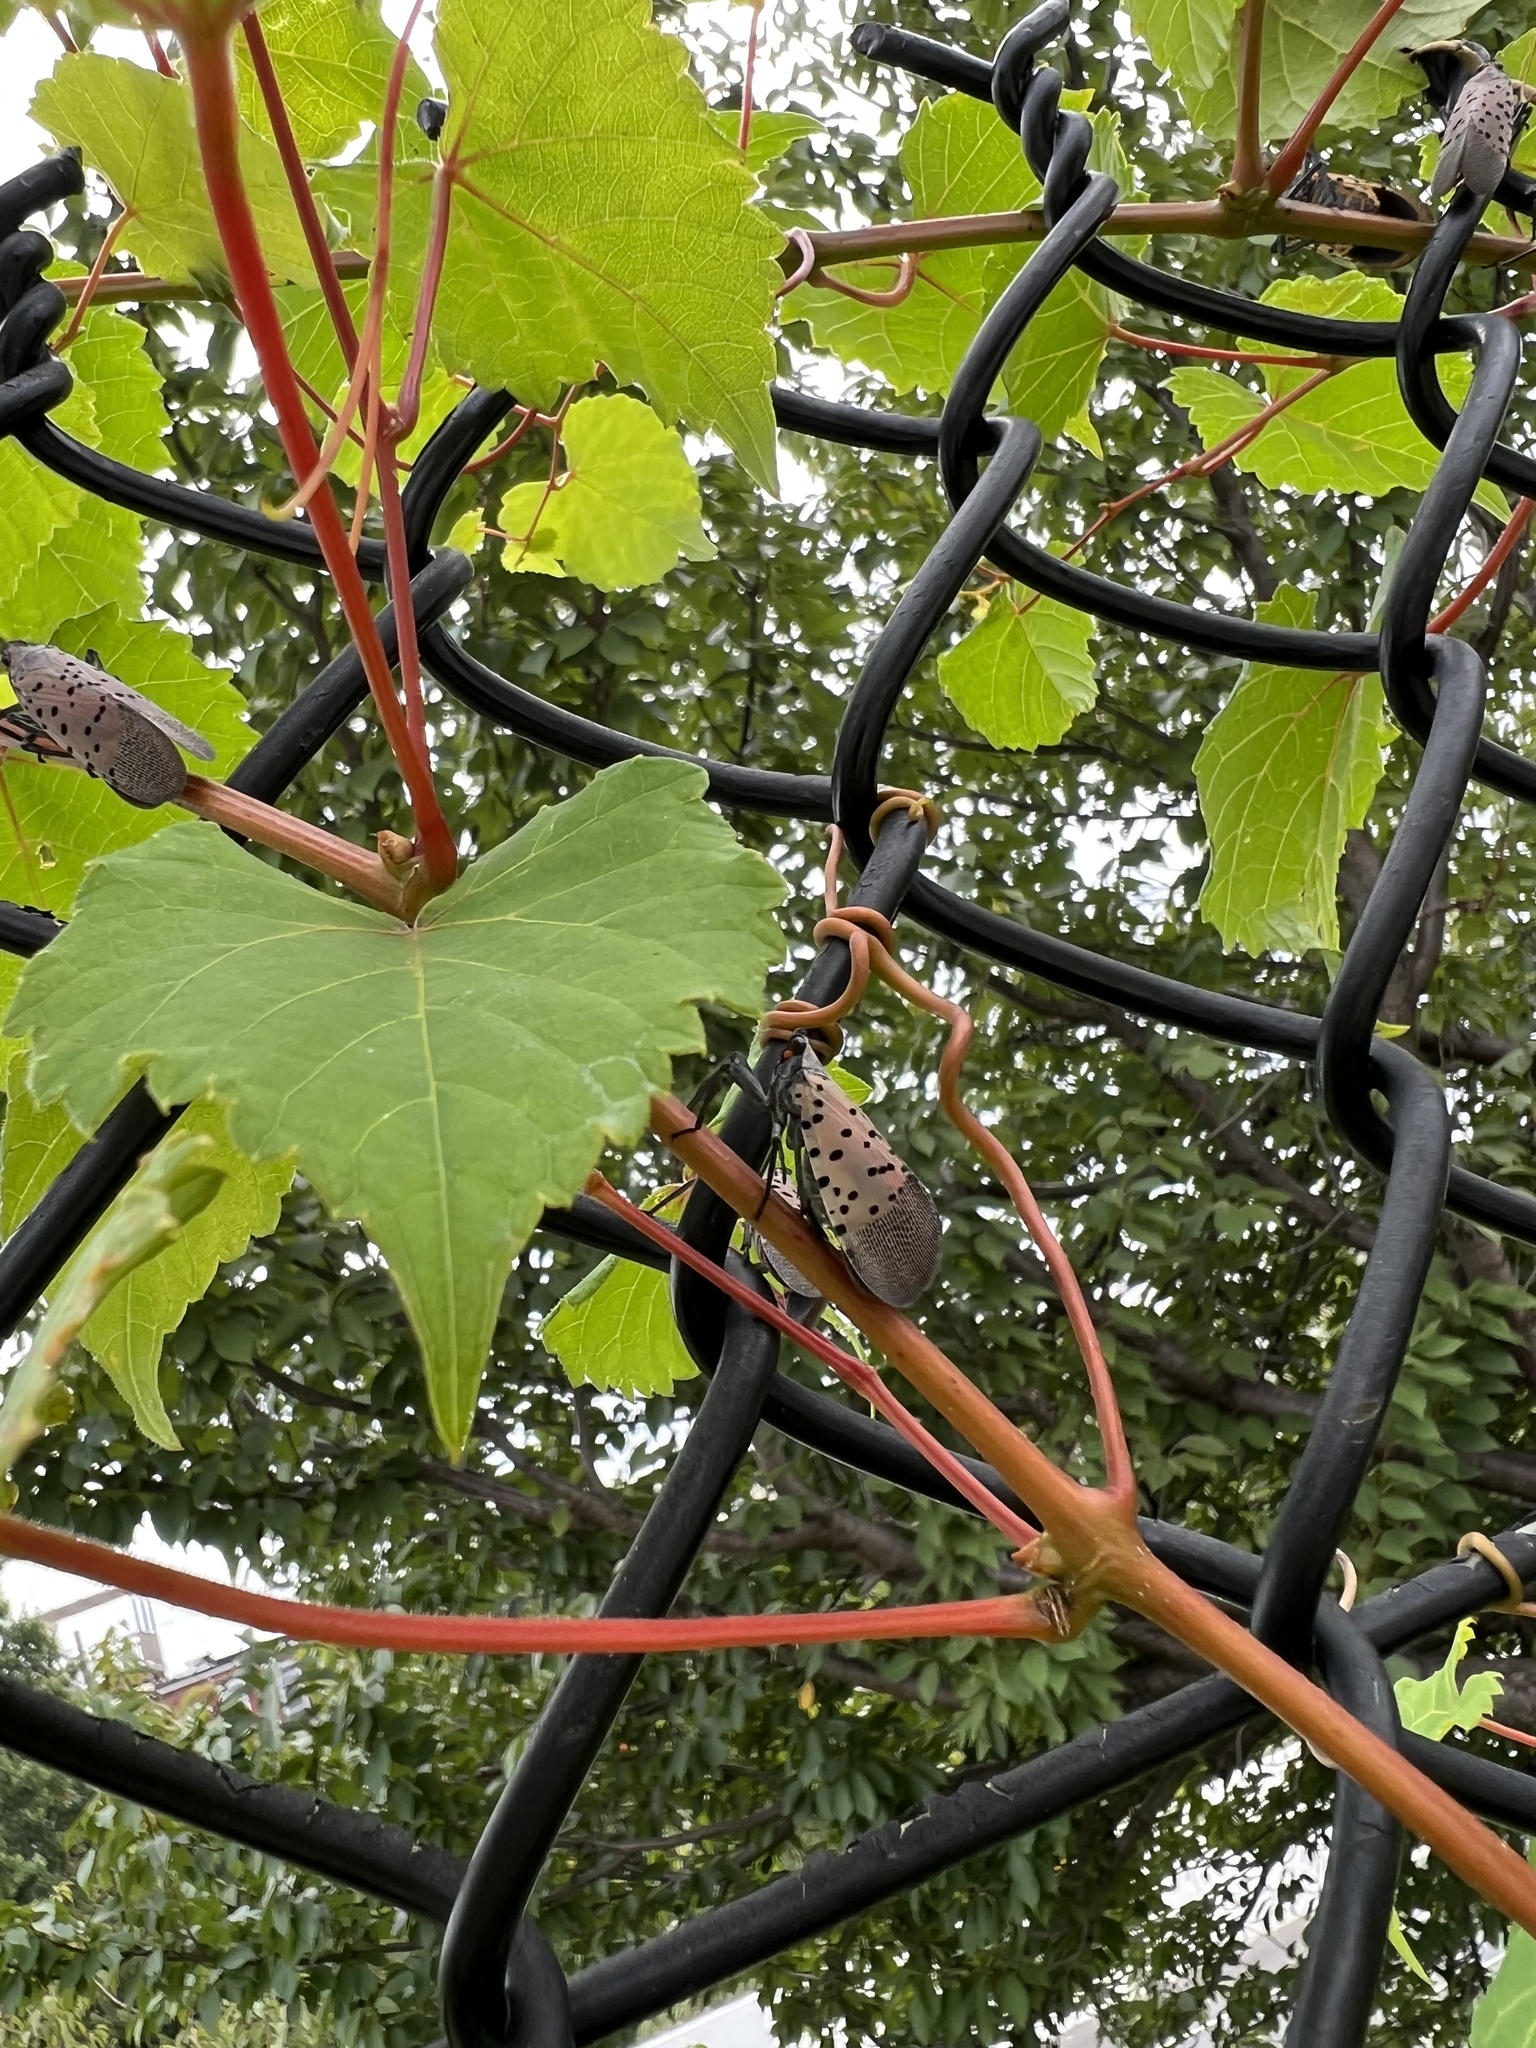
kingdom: Animalia
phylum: Arthropoda
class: Insecta
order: Hemiptera
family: Fulgoridae
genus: Lycorma
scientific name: Lycorma delicatula
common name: Spotted lanternfly
